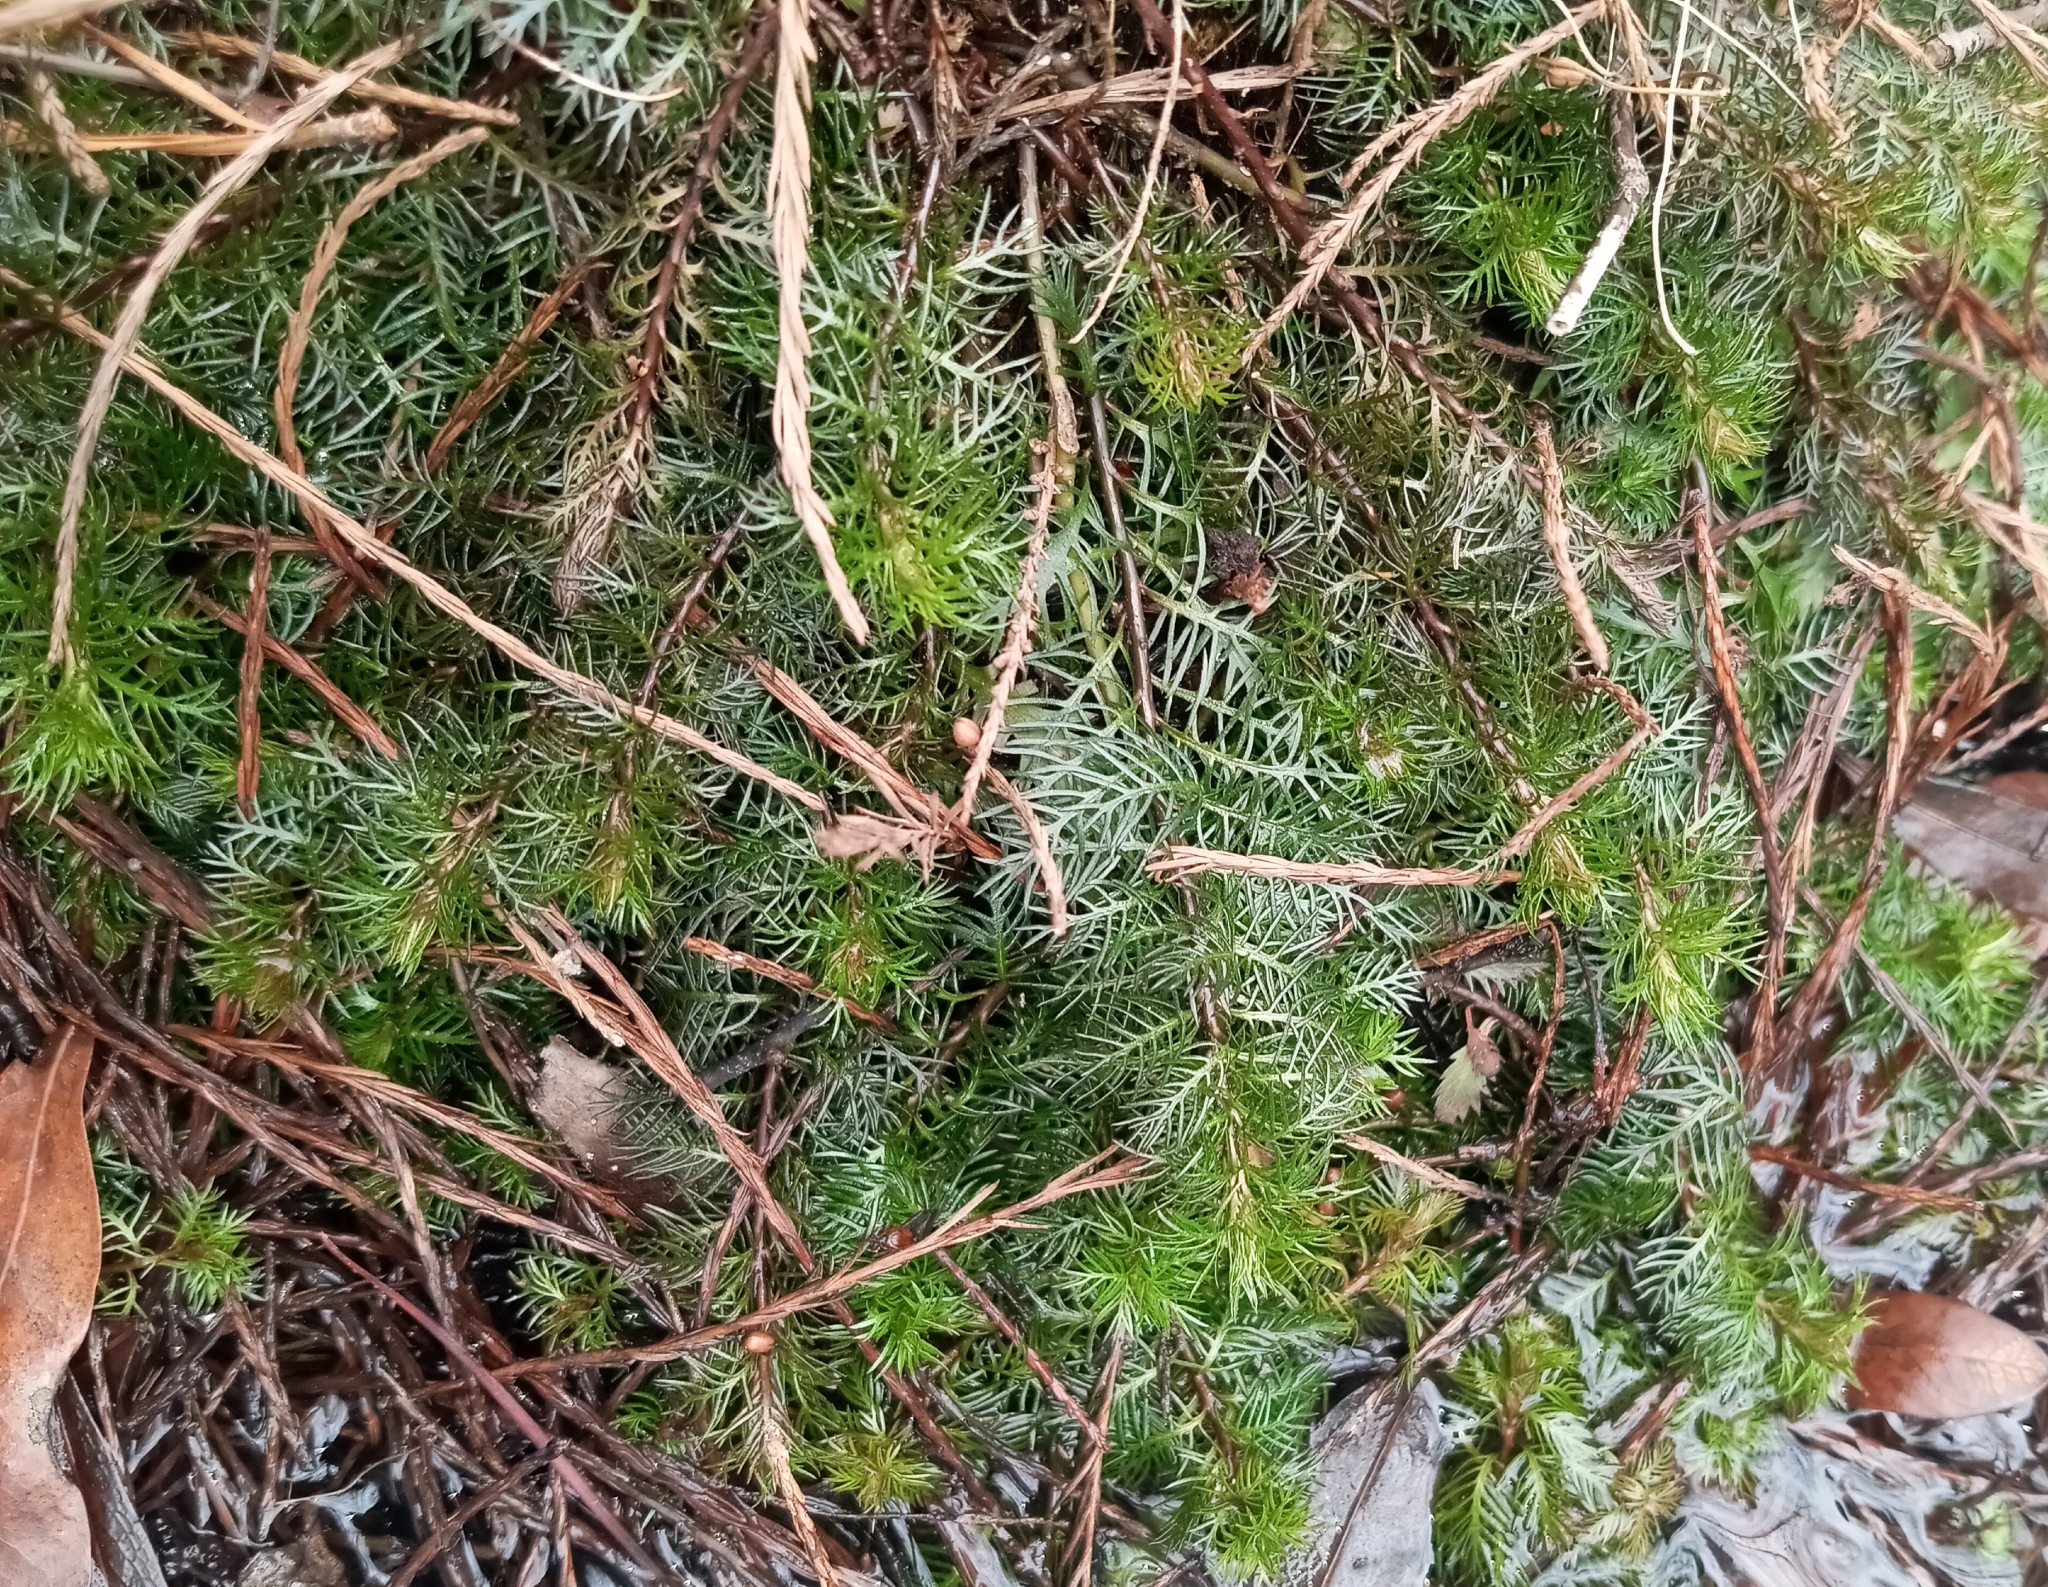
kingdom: Plantae
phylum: Tracheophyta
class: Magnoliopsida
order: Saxifragales
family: Haloragaceae
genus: Proserpinaca
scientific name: Proserpinaca pectinata
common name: Comb-leaved mermaidweed
